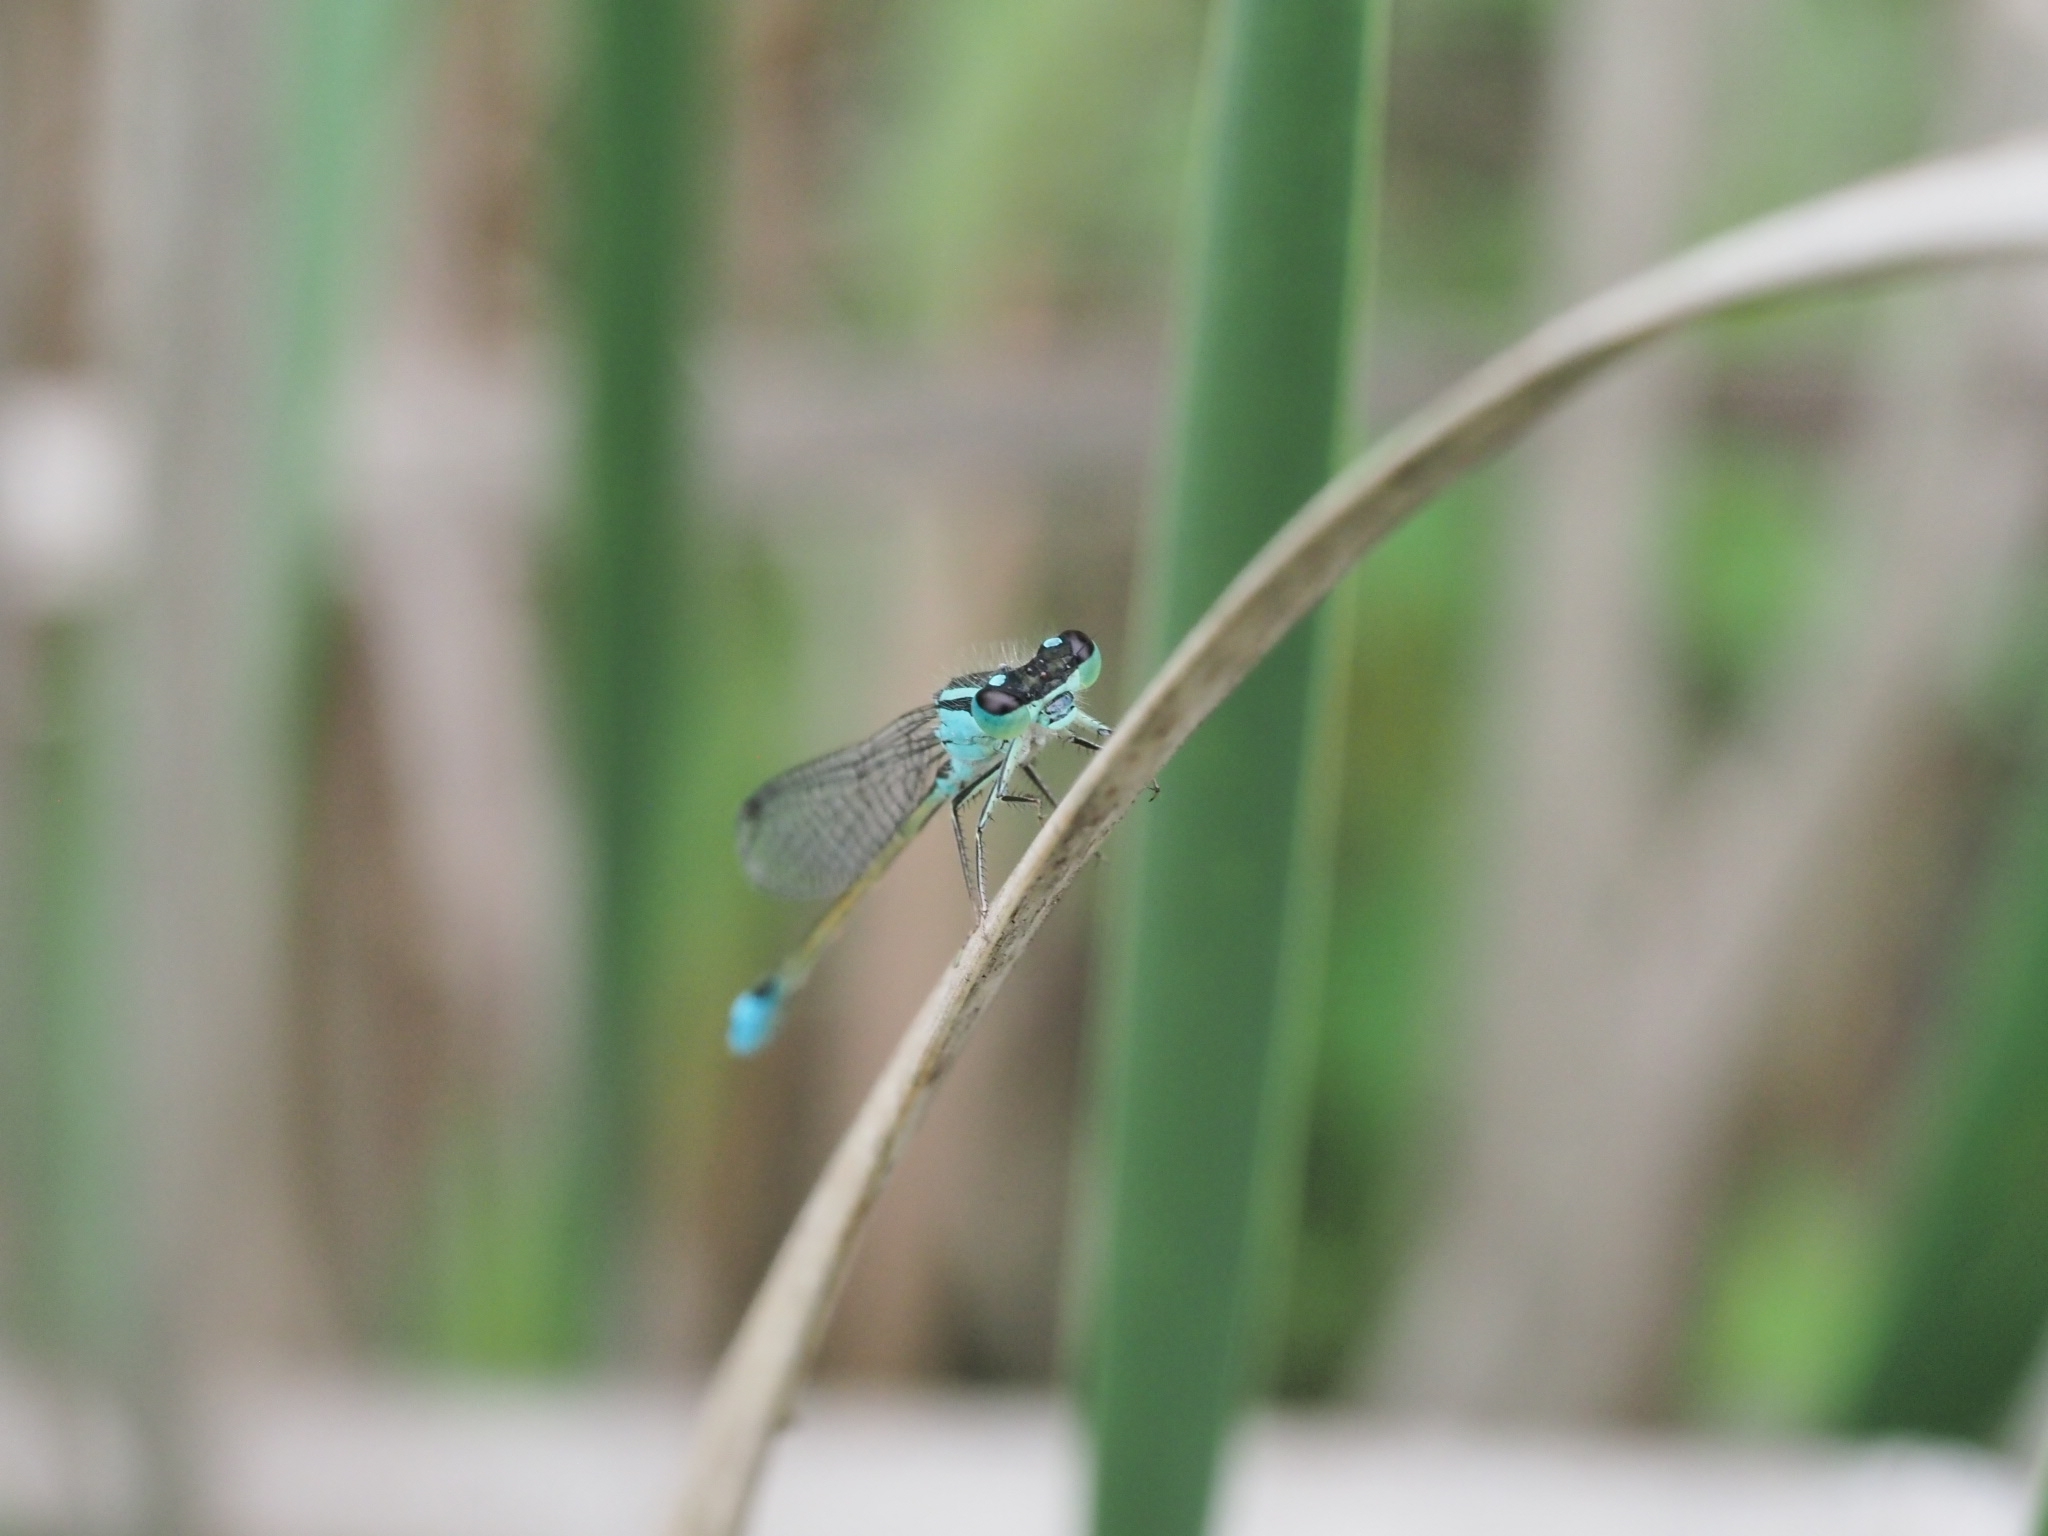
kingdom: Animalia
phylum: Arthropoda
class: Insecta
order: Odonata
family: Coenagrionidae
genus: Ischnura
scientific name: Ischnura elegans
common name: Blue-tailed damselfly
